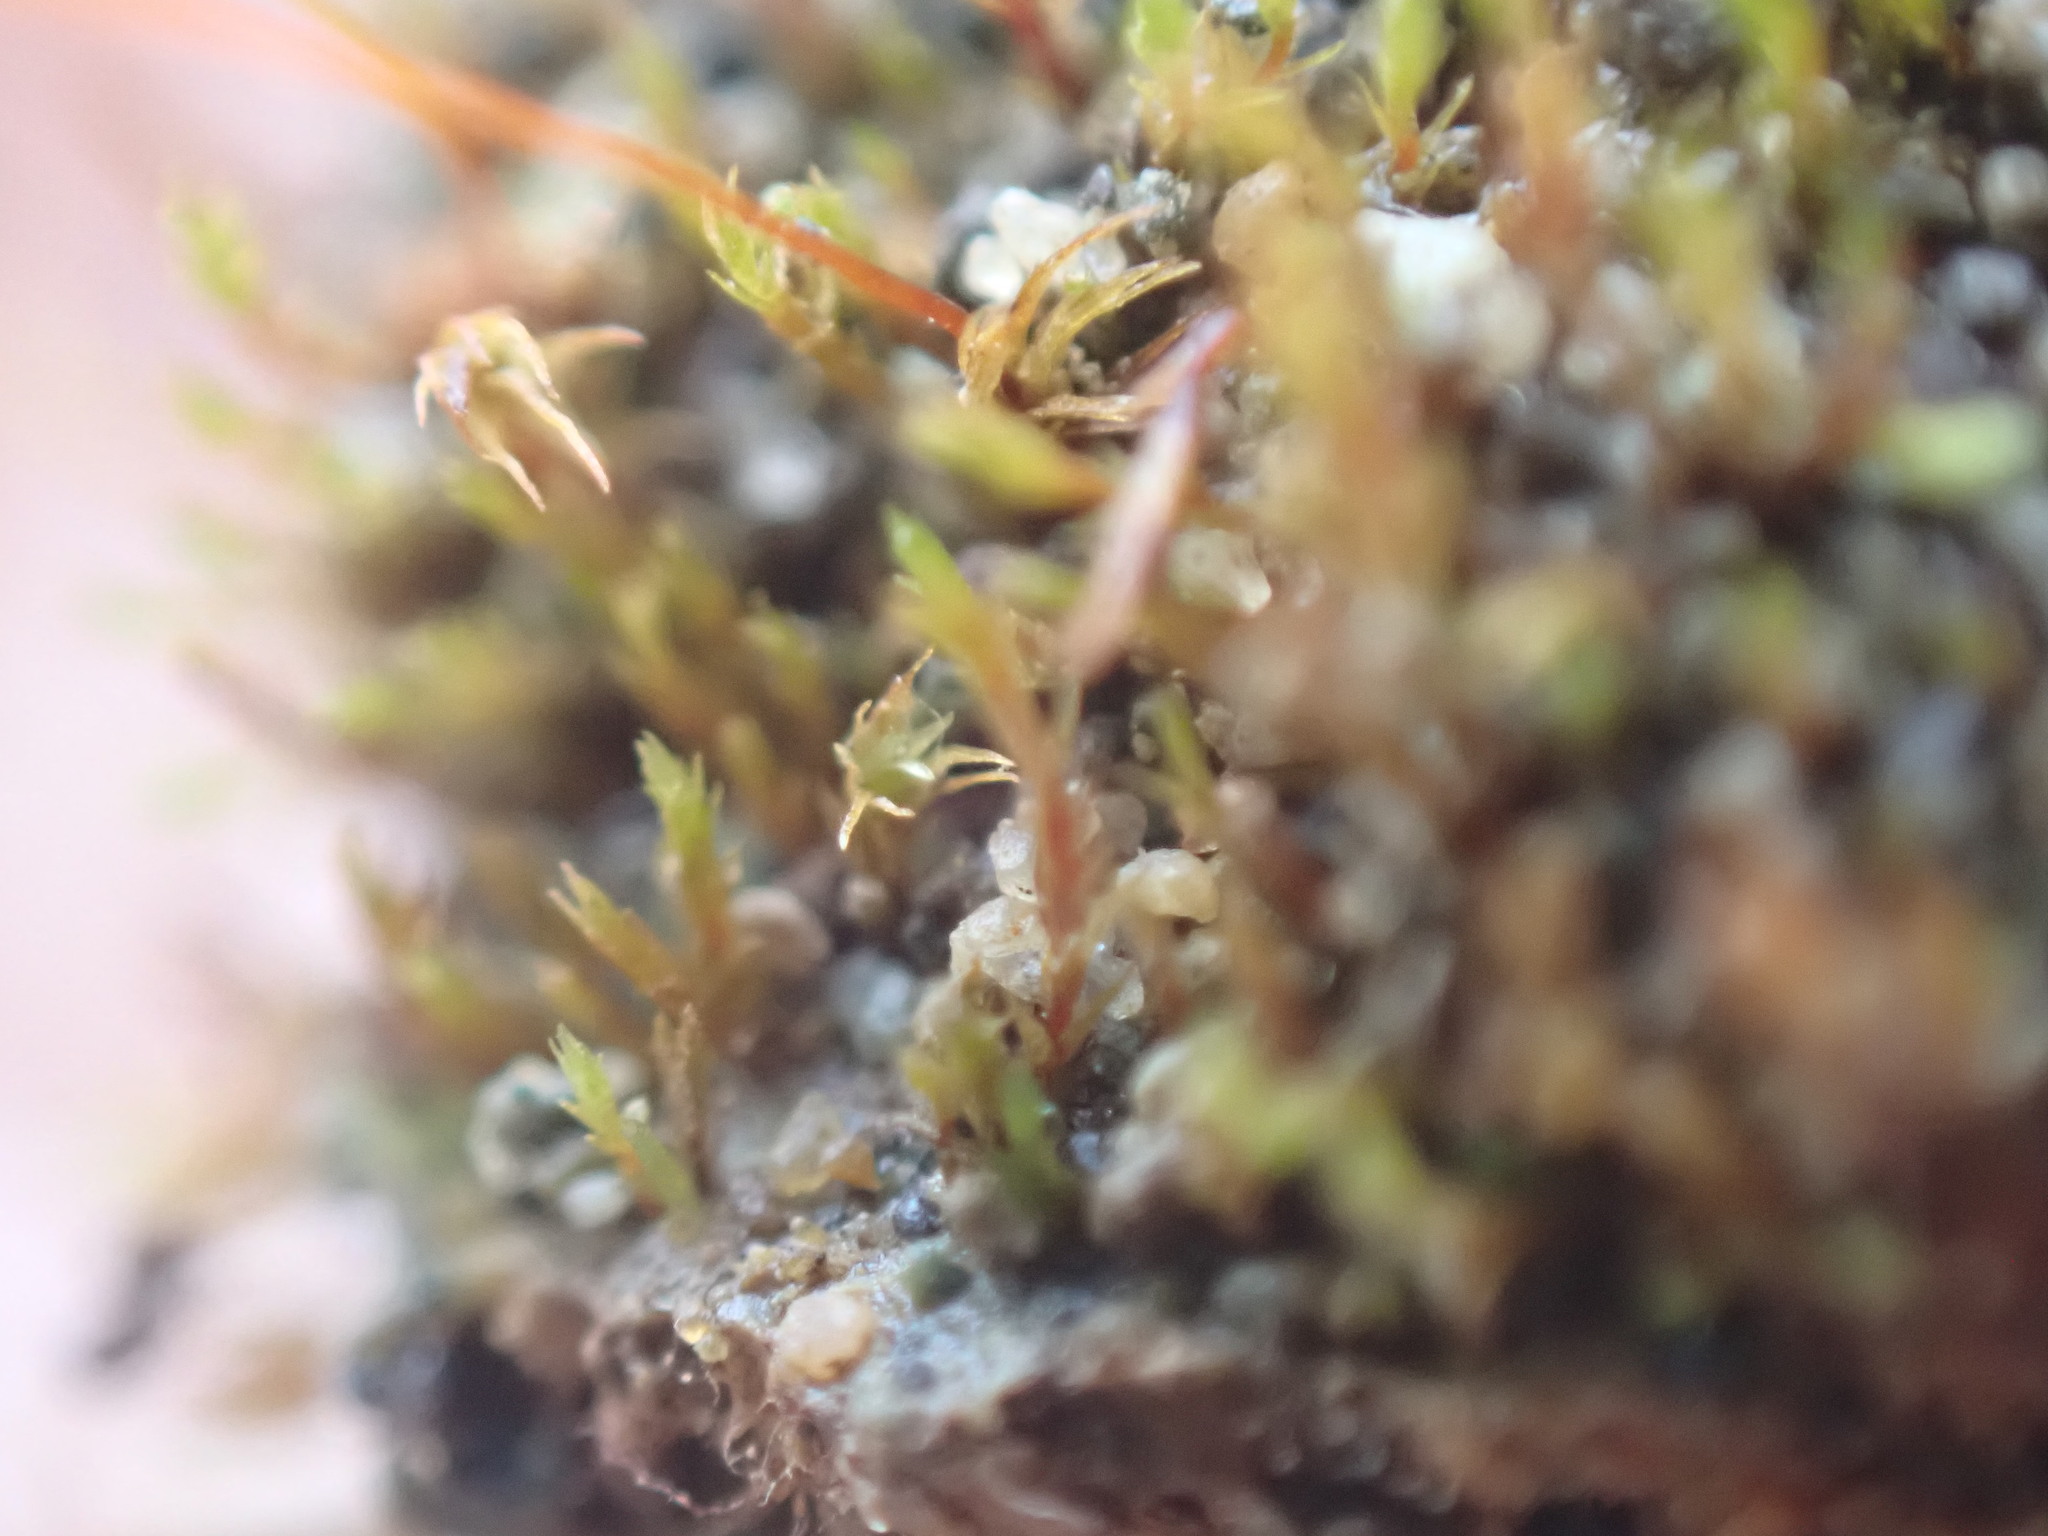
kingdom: Plantae
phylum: Bryophyta
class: Bryopsida
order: Dicranales
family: Dicranellaceae
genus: Dicranella
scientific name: Dicranella rufescens
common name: Red forklet moss
